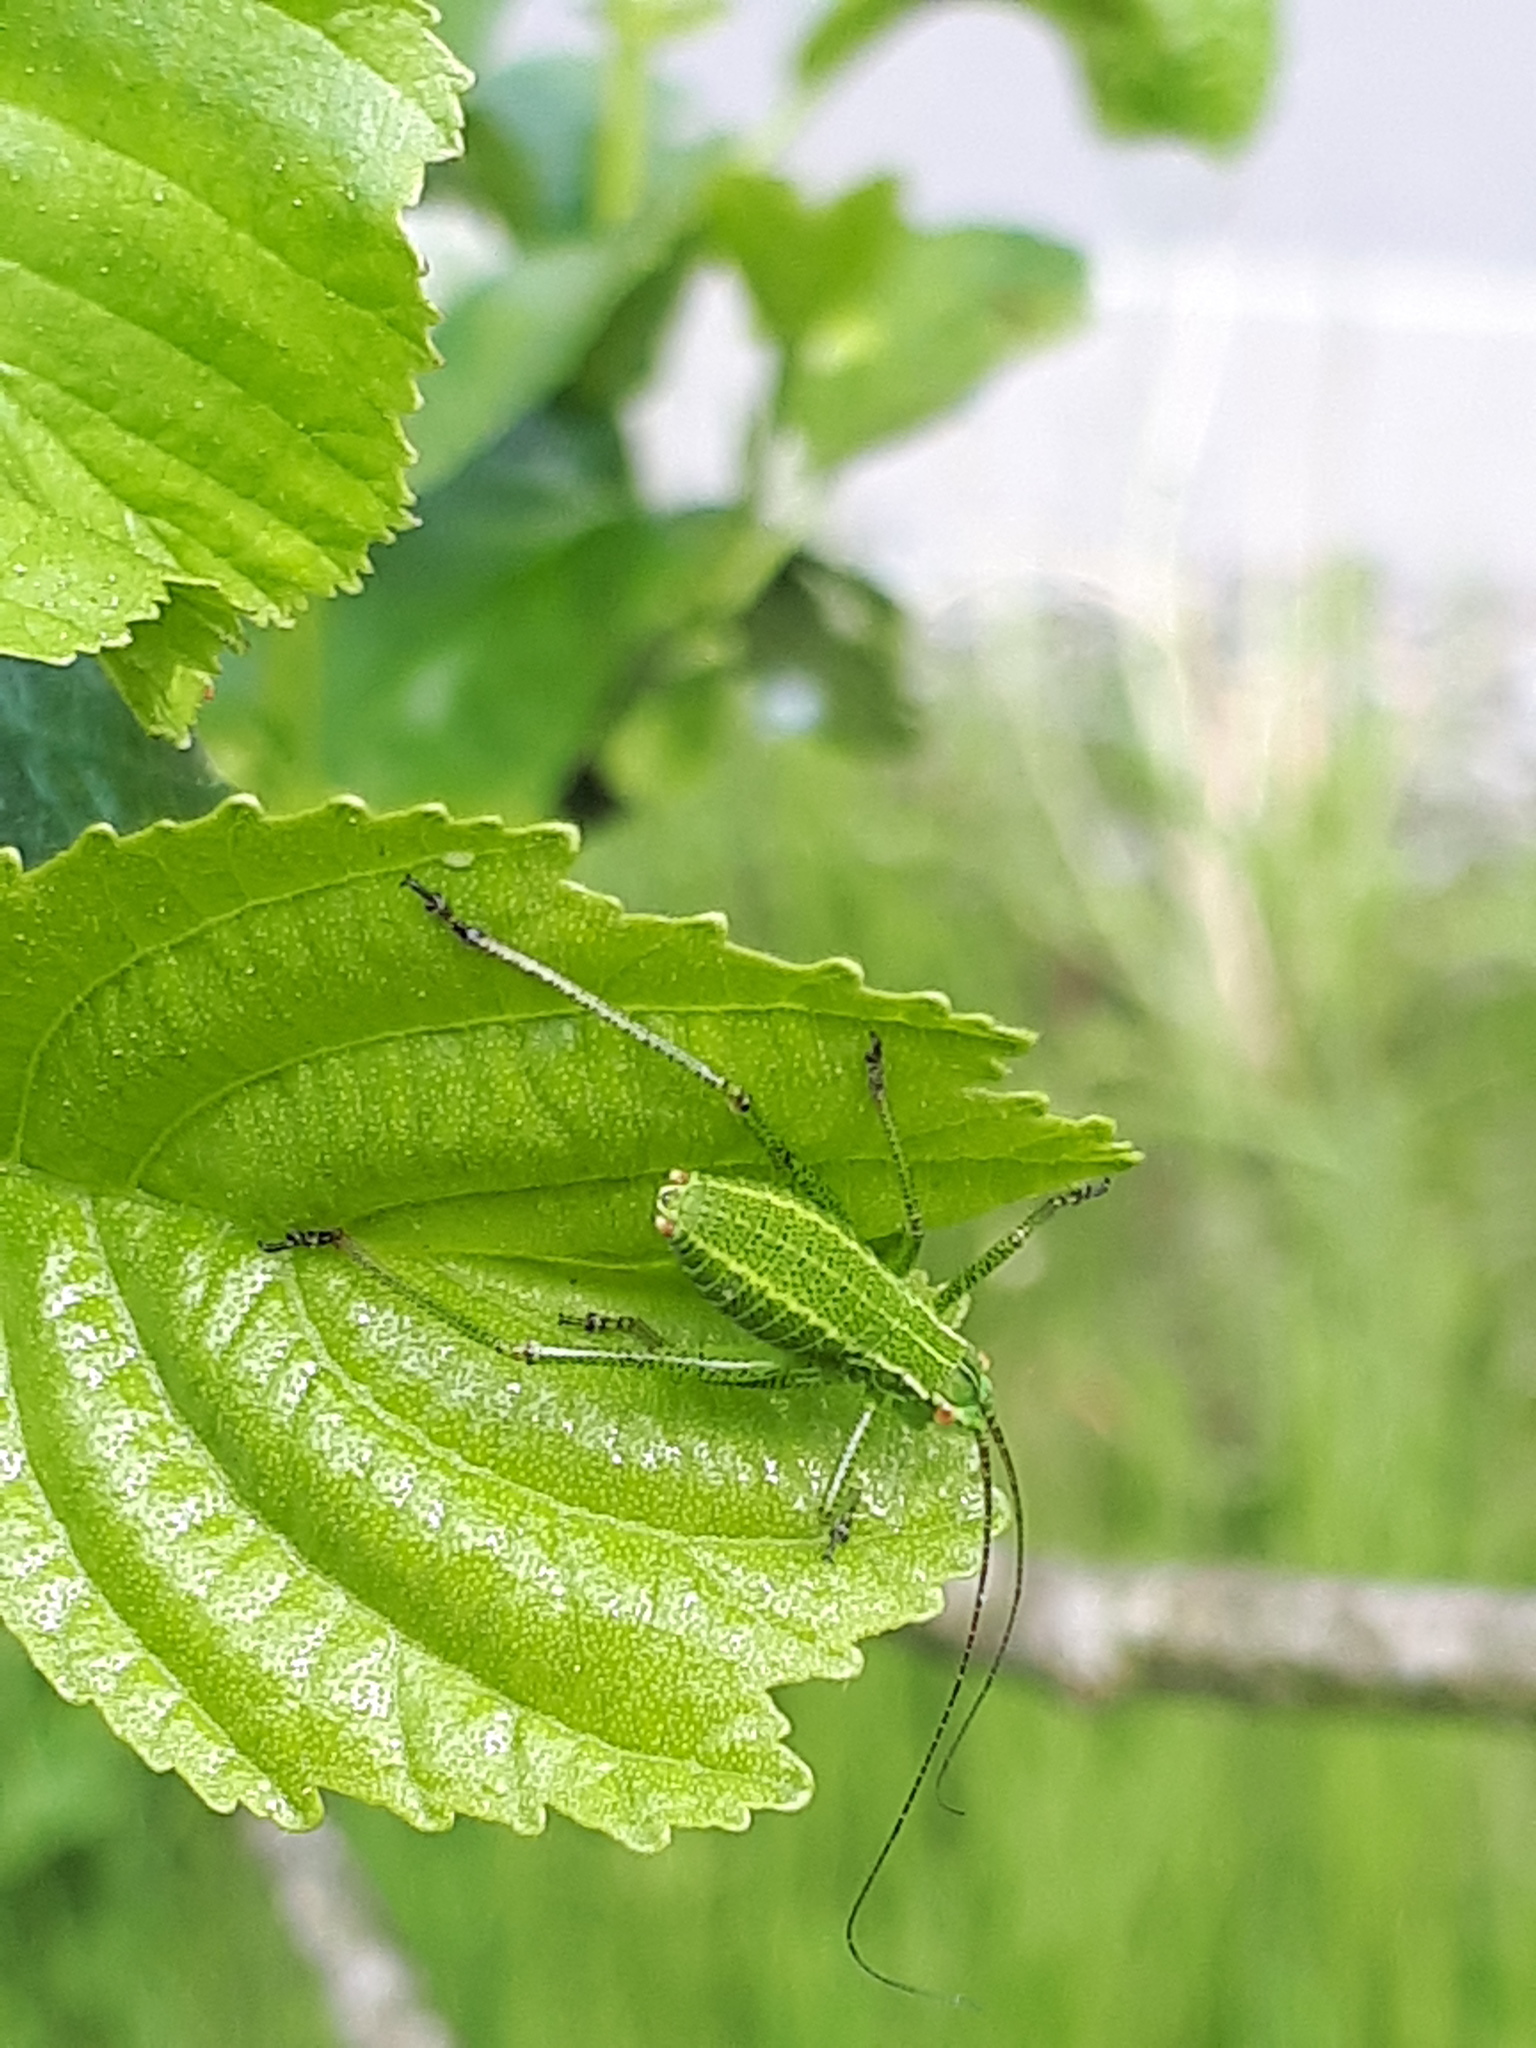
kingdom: Animalia
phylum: Arthropoda
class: Insecta
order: Orthoptera
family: Tettigoniidae
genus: Barbitistes
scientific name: Barbitistes constrictus
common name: Eastern saw-tailed bush cricket
